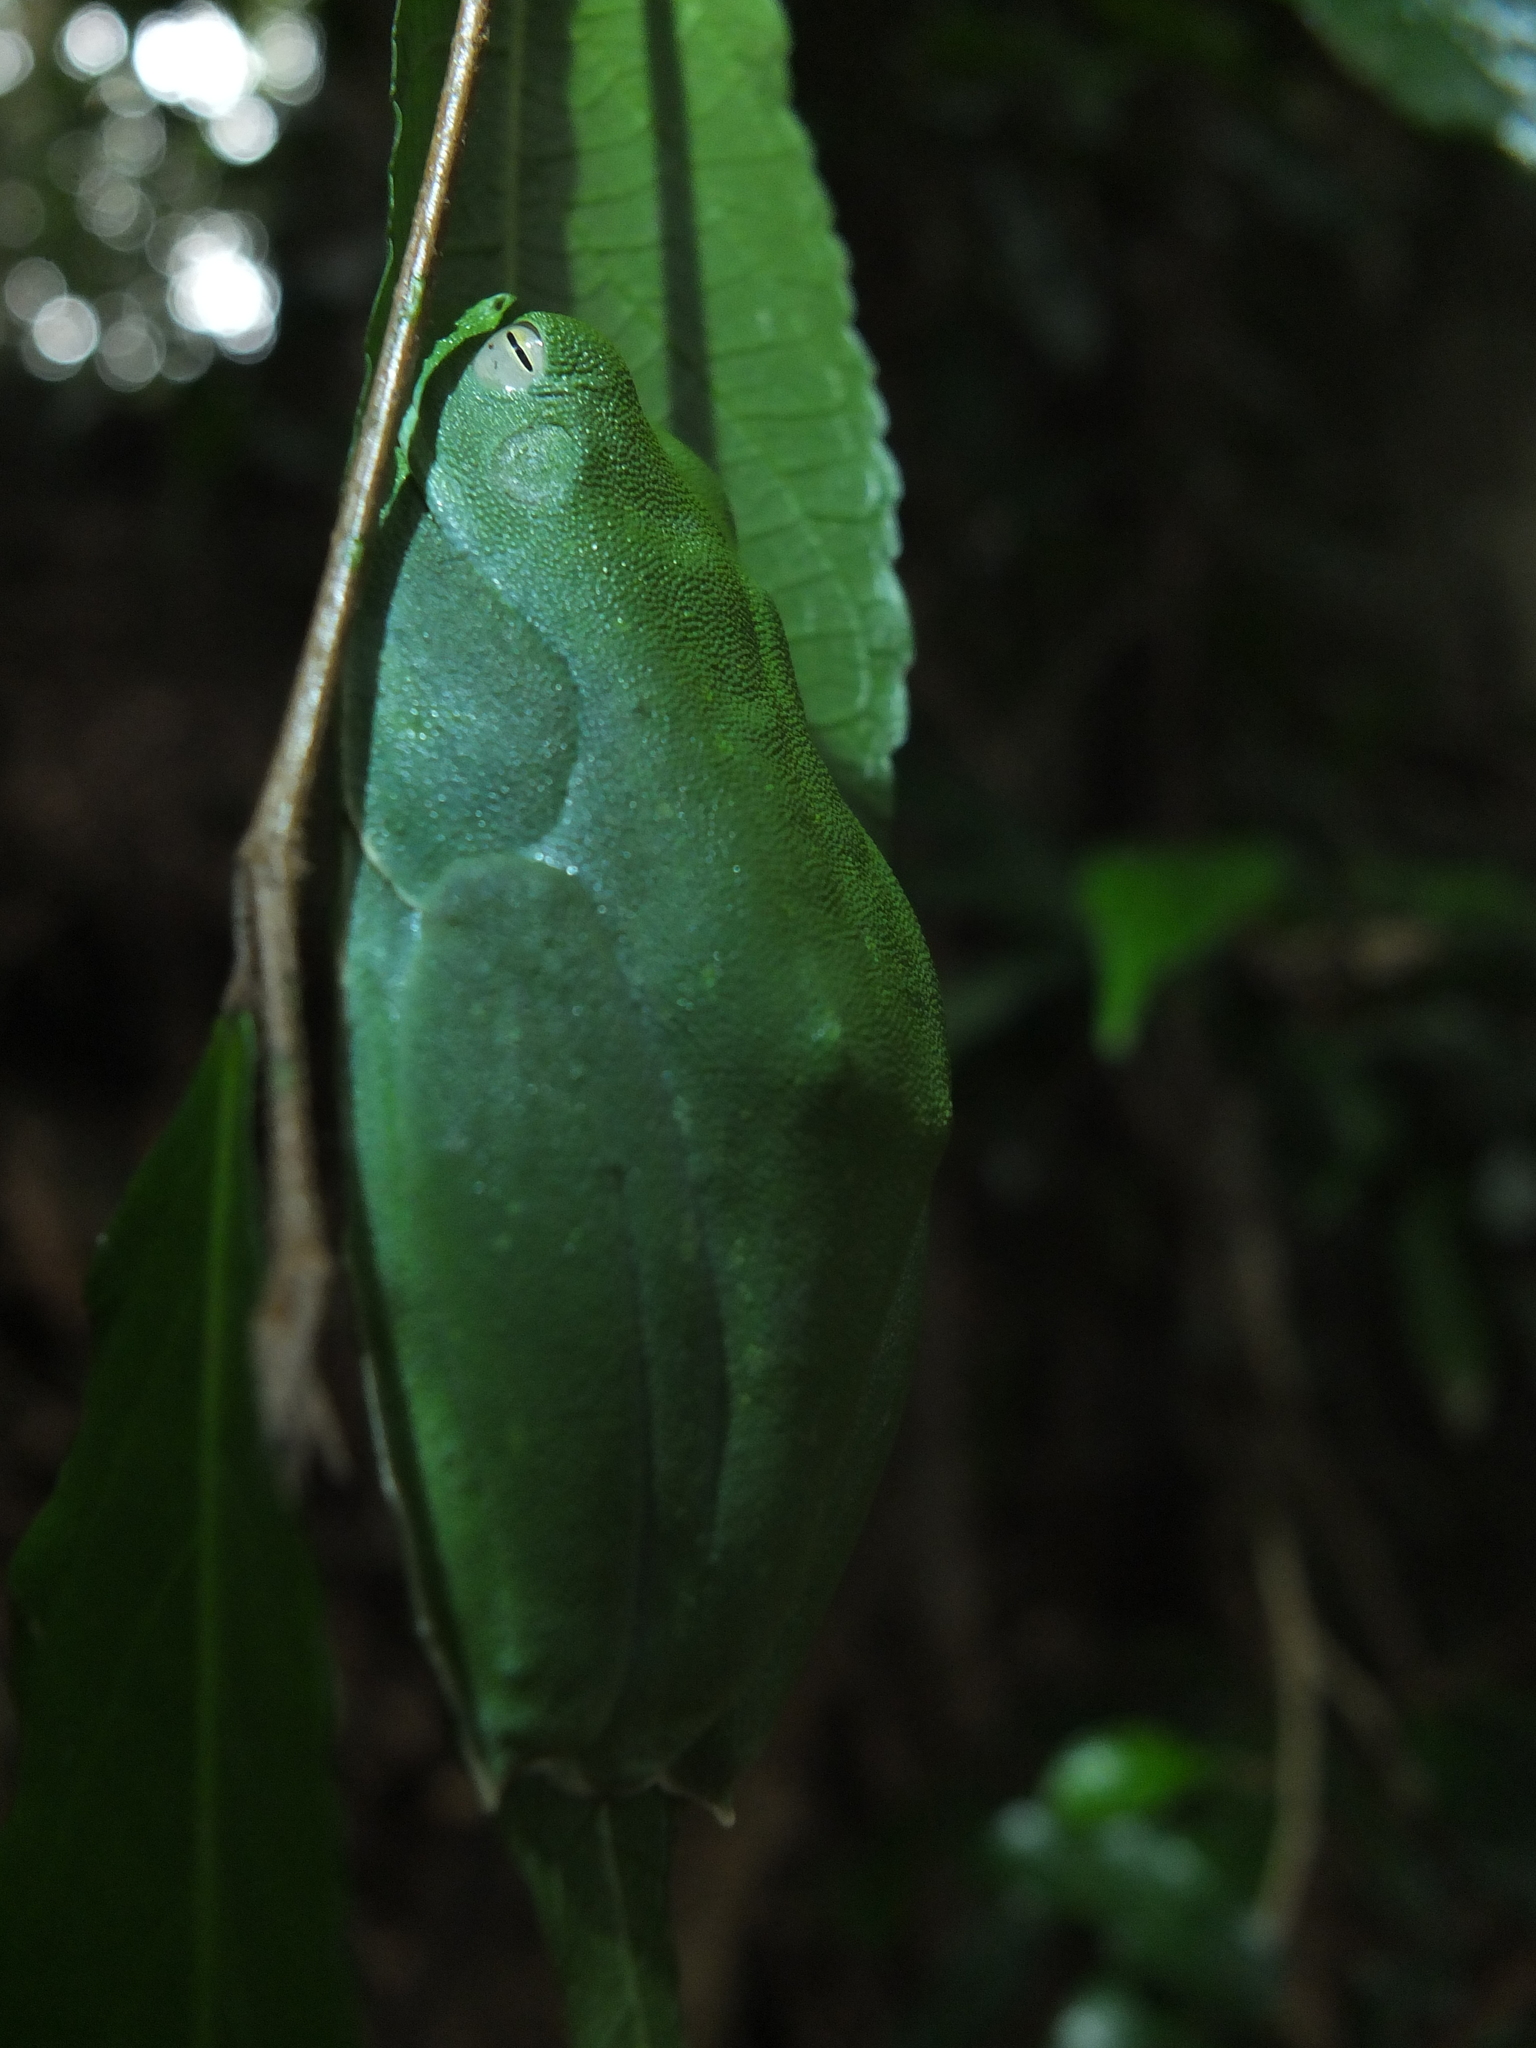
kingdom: Animalia
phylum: Chordata
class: Amphibia
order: Anura
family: Rhacophoridae
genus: Rhacophorus
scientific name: Rhacophorus malabaricus
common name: Malabar gliding frog
